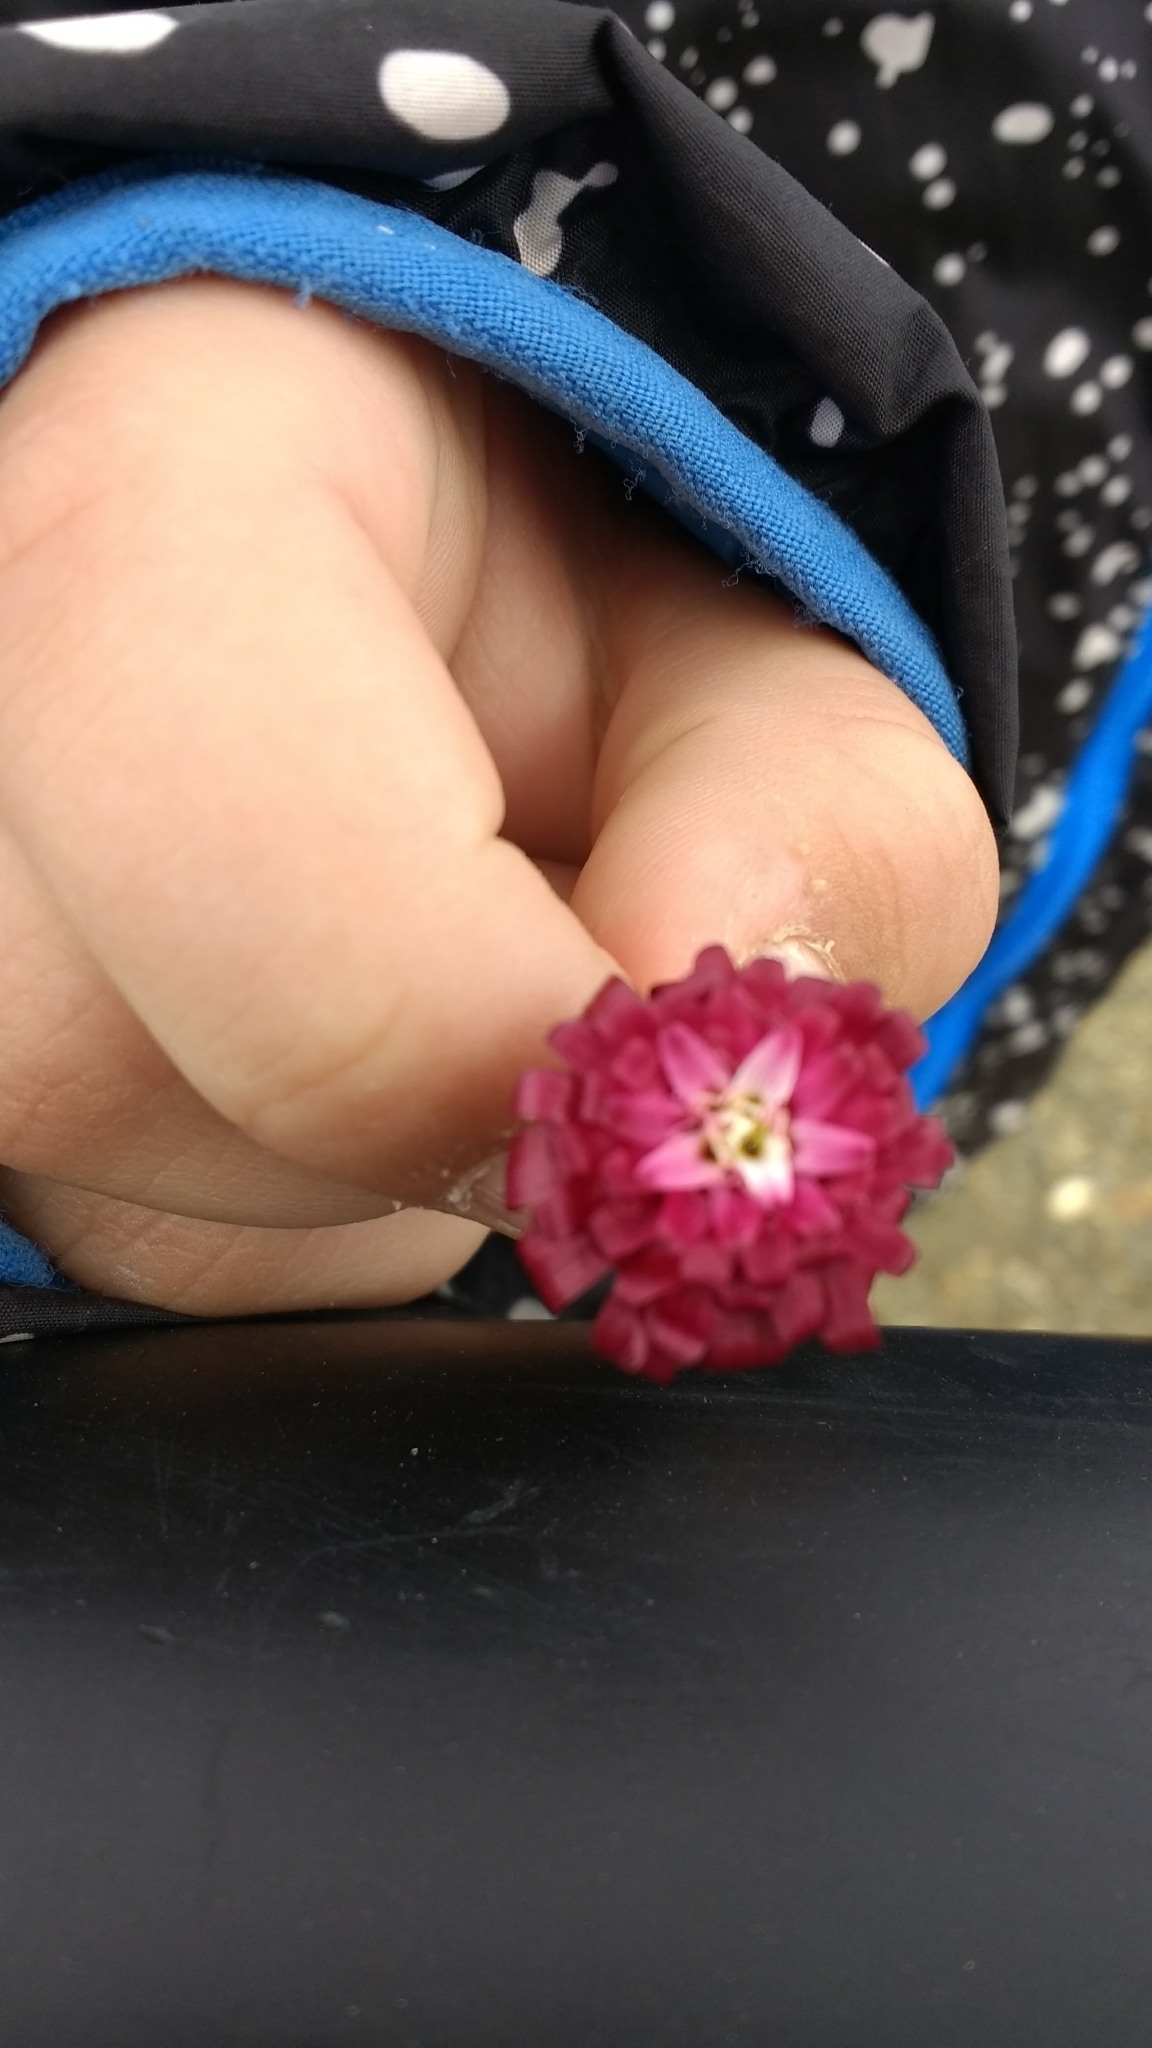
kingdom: Plantae
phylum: Tracheophyta
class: Magnoliopsida
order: Asterales
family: Asteraceae
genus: Leucheria
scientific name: Leucheria purpurea
